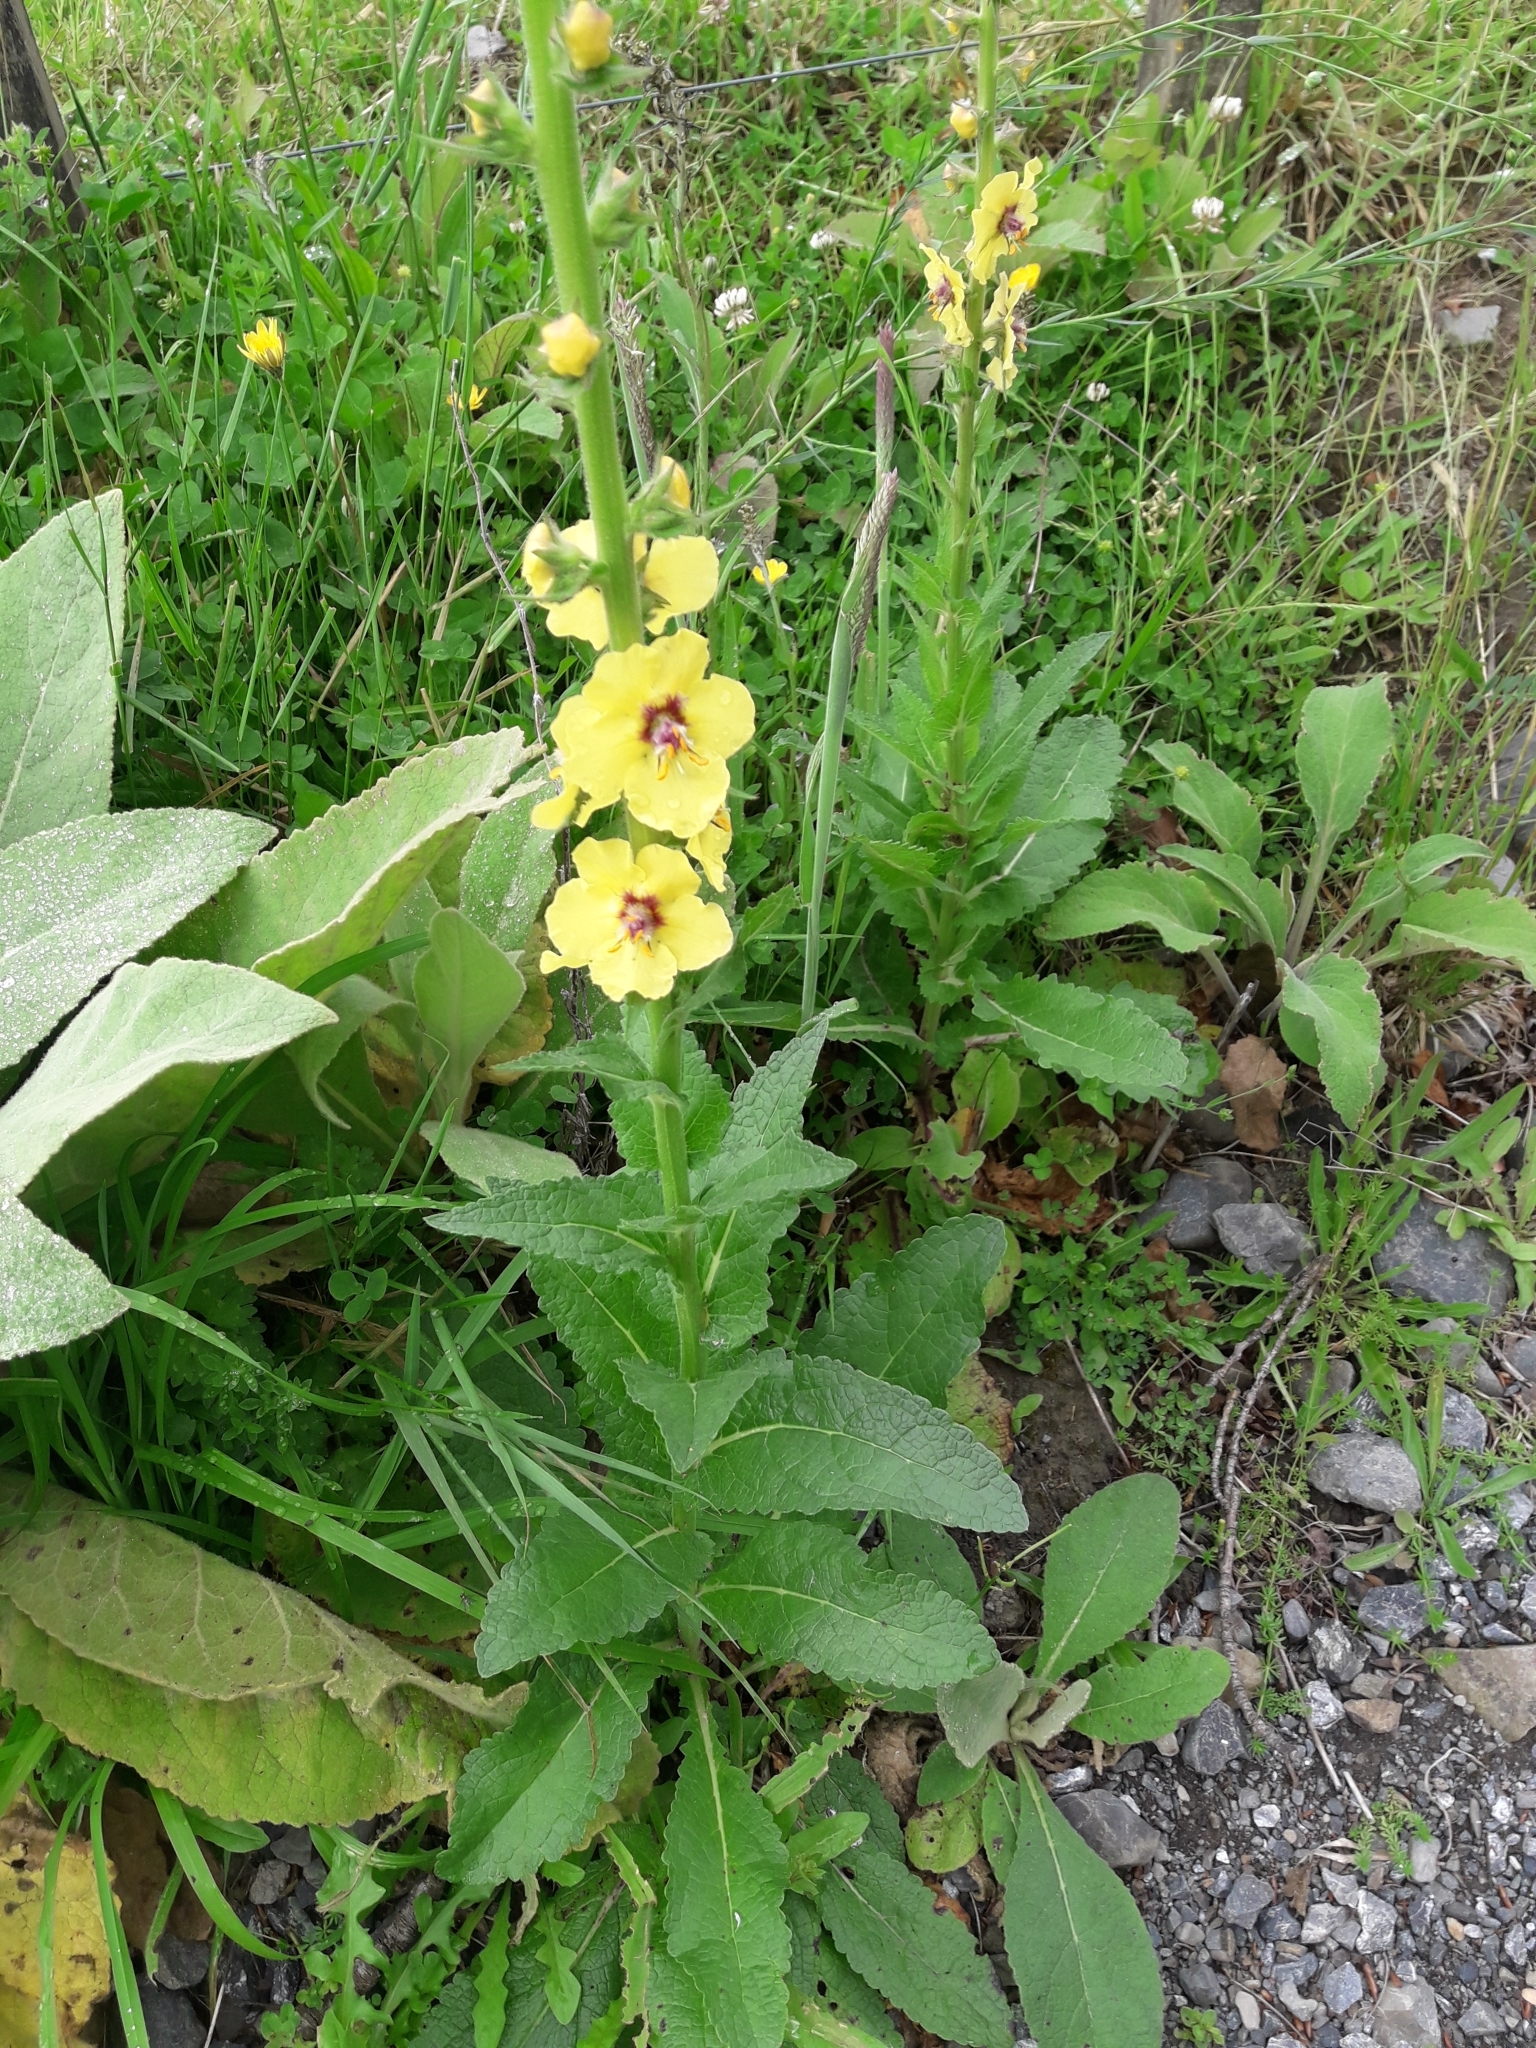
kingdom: Plantae
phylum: Tracheophyta
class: Magnoliopsida
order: Lamiales
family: Scrophulariaceae
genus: Verbascum
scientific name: Verbascum virgatum
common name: Twiggy mullein
